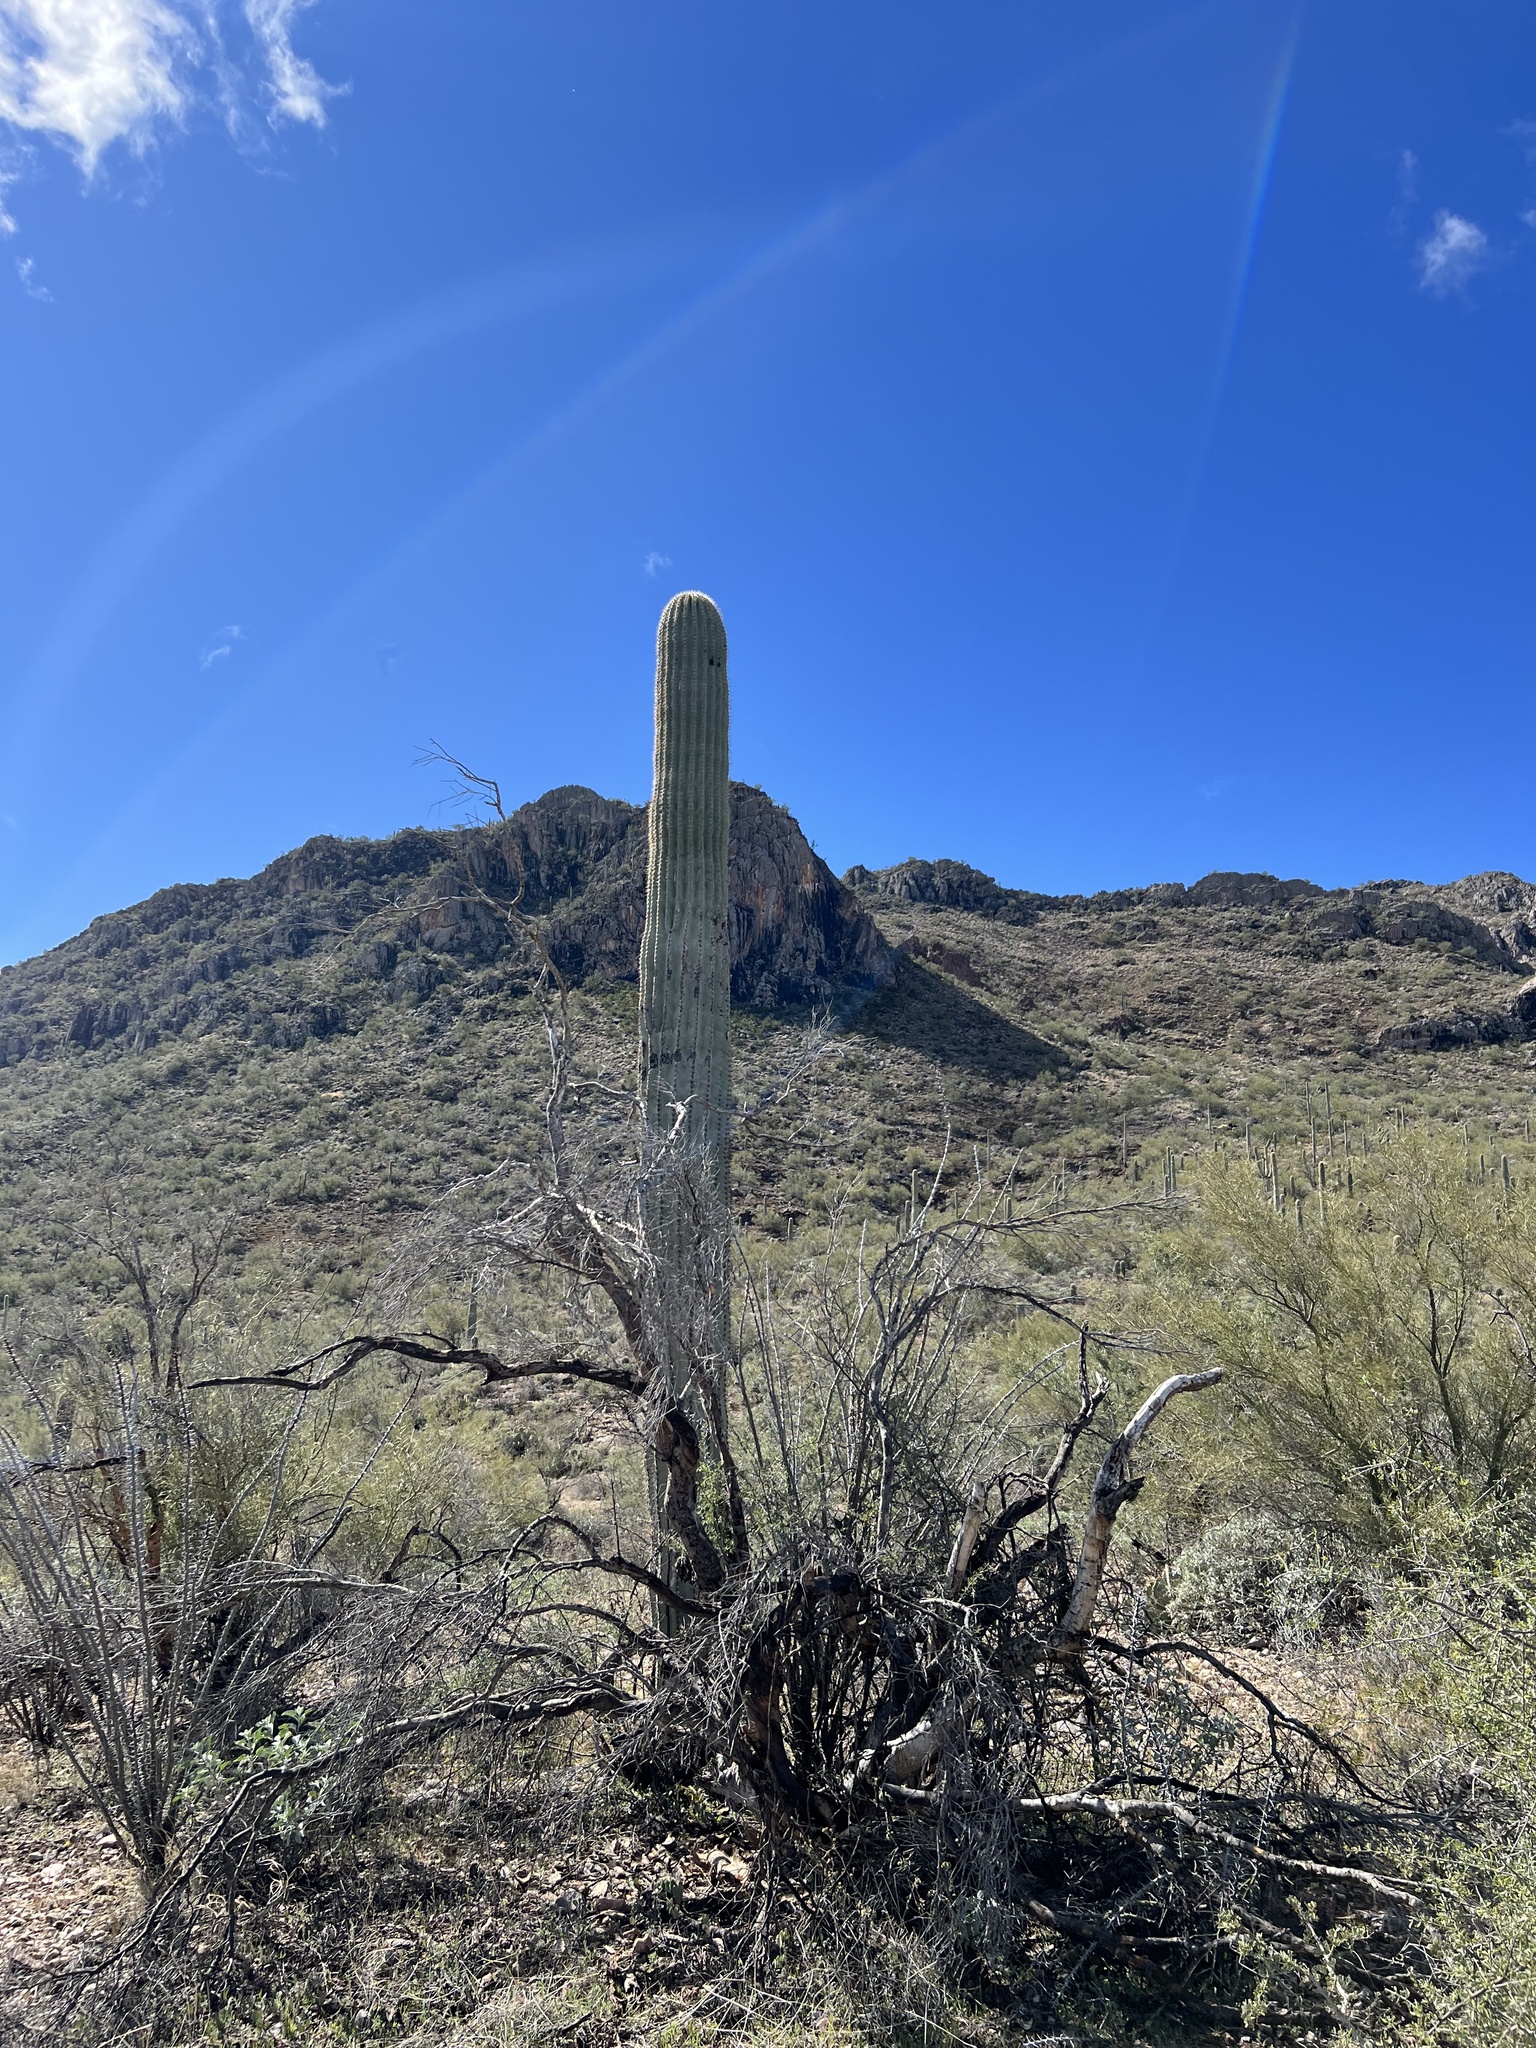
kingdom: Plantae
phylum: Tracheophyta
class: Magnoliopsida
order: Caryophyllales
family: Cactaceae
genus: Carnegiea
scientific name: Carnegiea gigantea
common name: Saguaro
